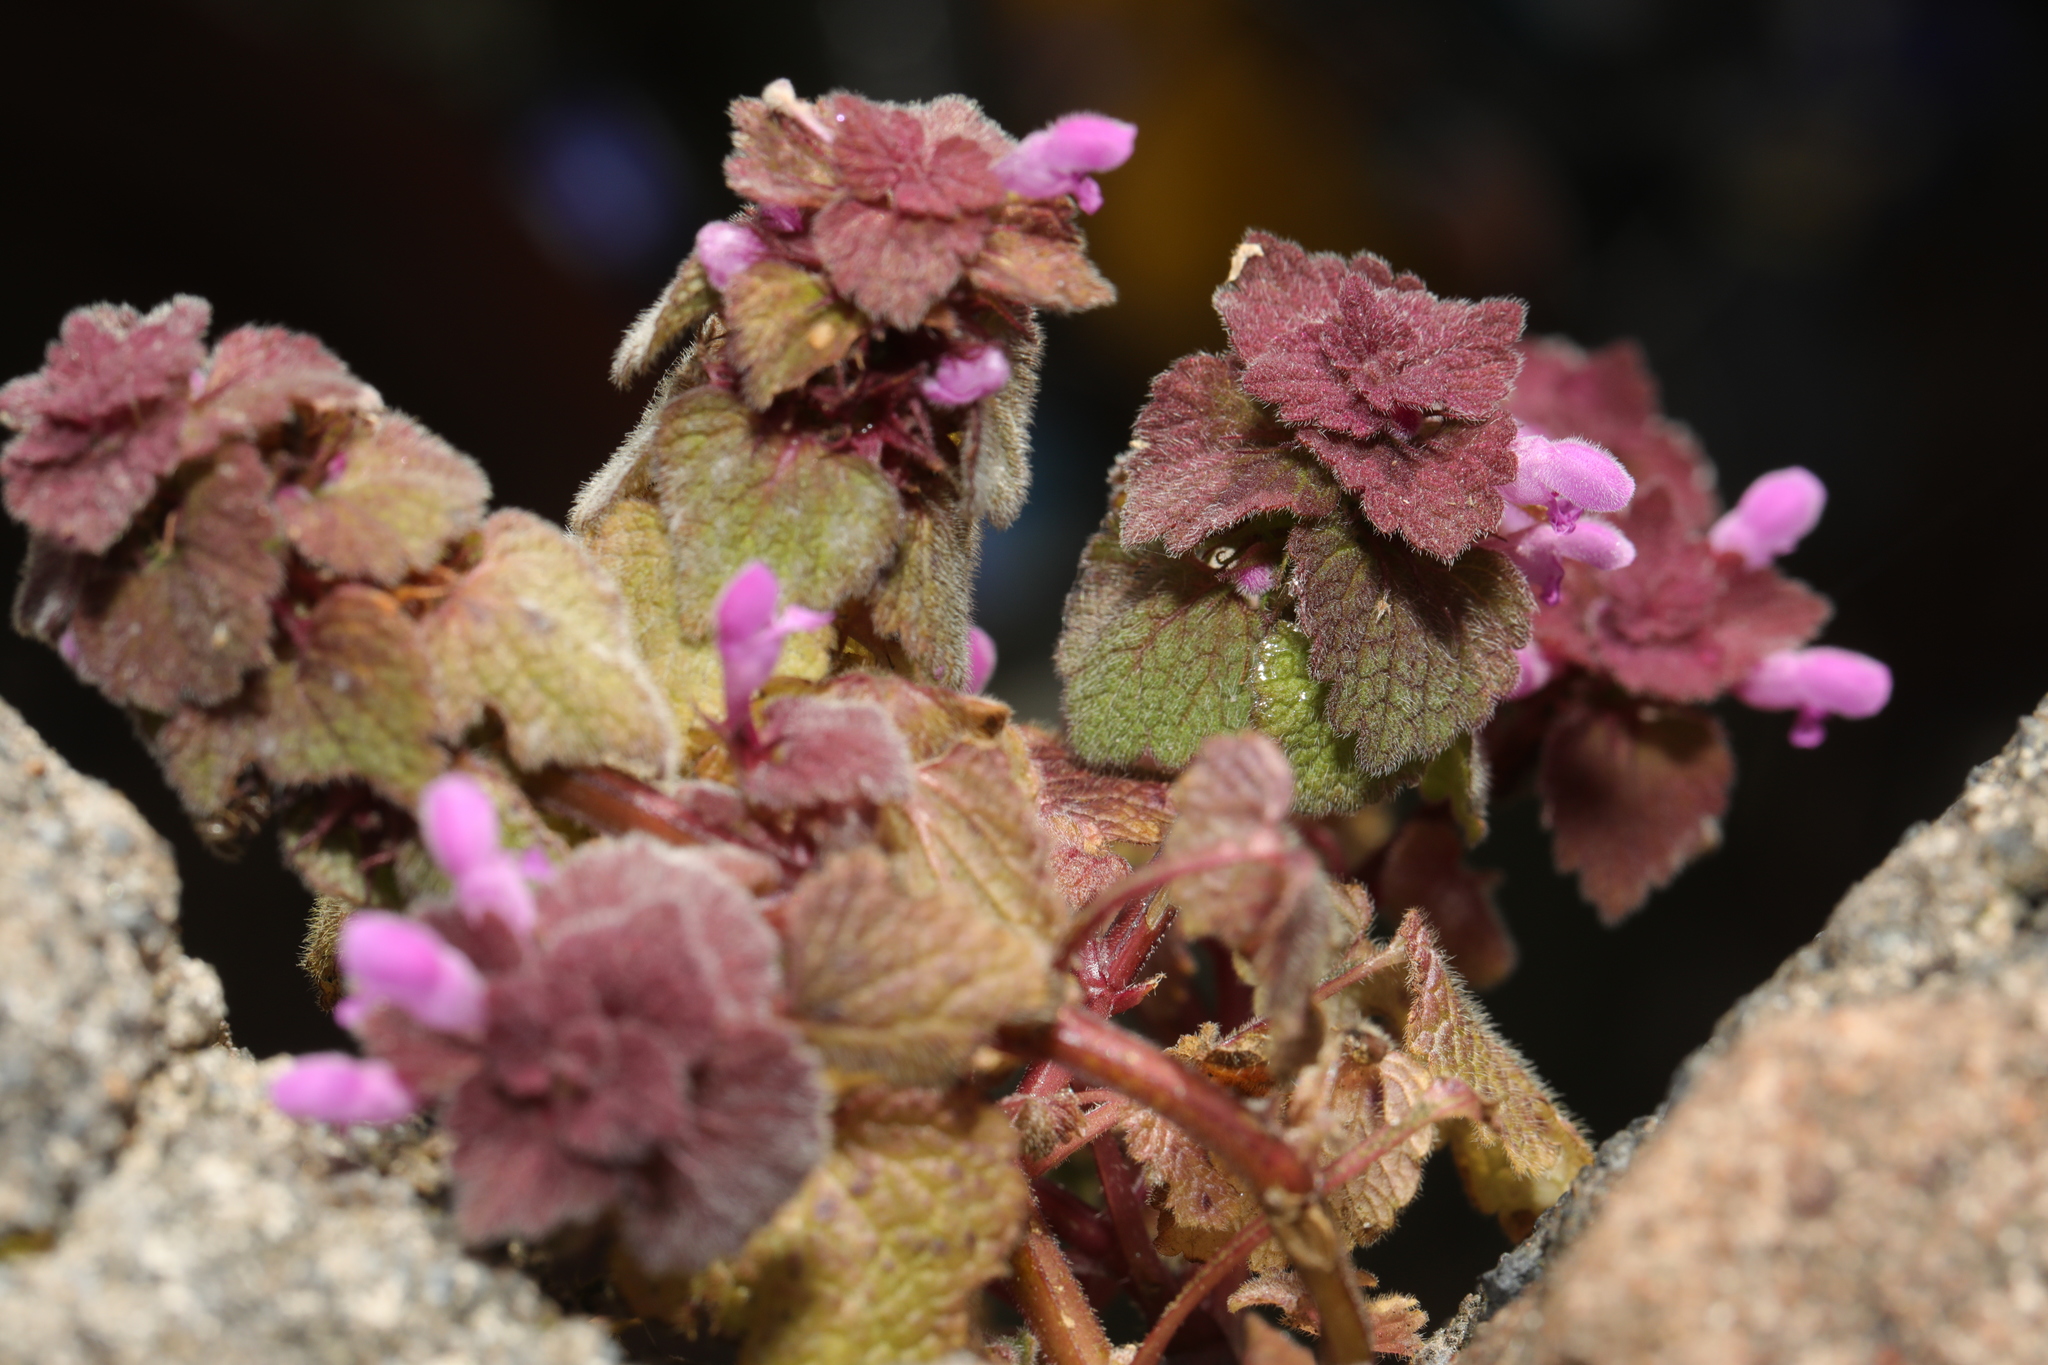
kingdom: Plantae
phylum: Tracheophyta
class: Magnoliopsida
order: Lamiales
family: Lamiaceae
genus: Lamium
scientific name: Lamium purpureum
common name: Red dead-nettle
